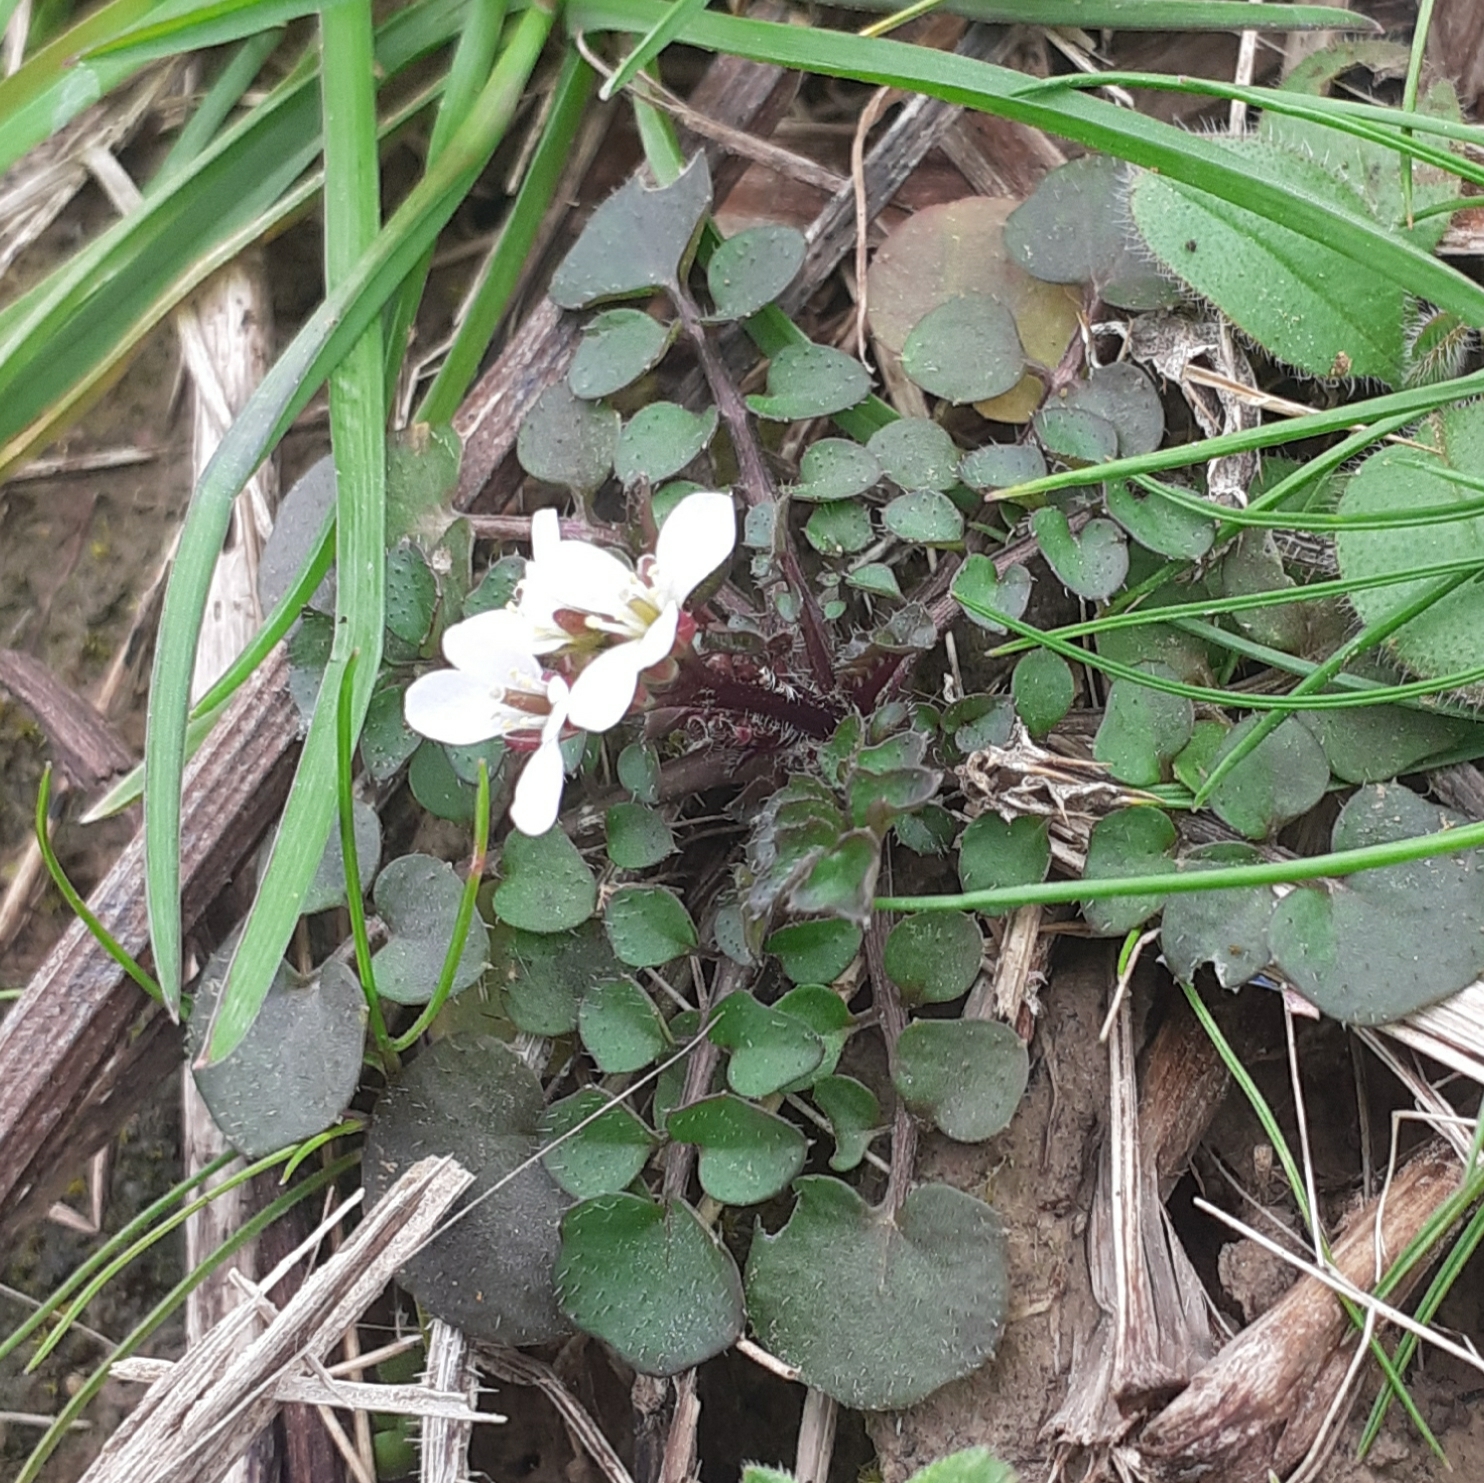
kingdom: Plantae
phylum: Tracheophyta
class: Magnoliopsida
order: Brassicales
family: Brassicaceae
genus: Cardamine
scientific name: Cardamine hirsuta
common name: Hairy bittercress
